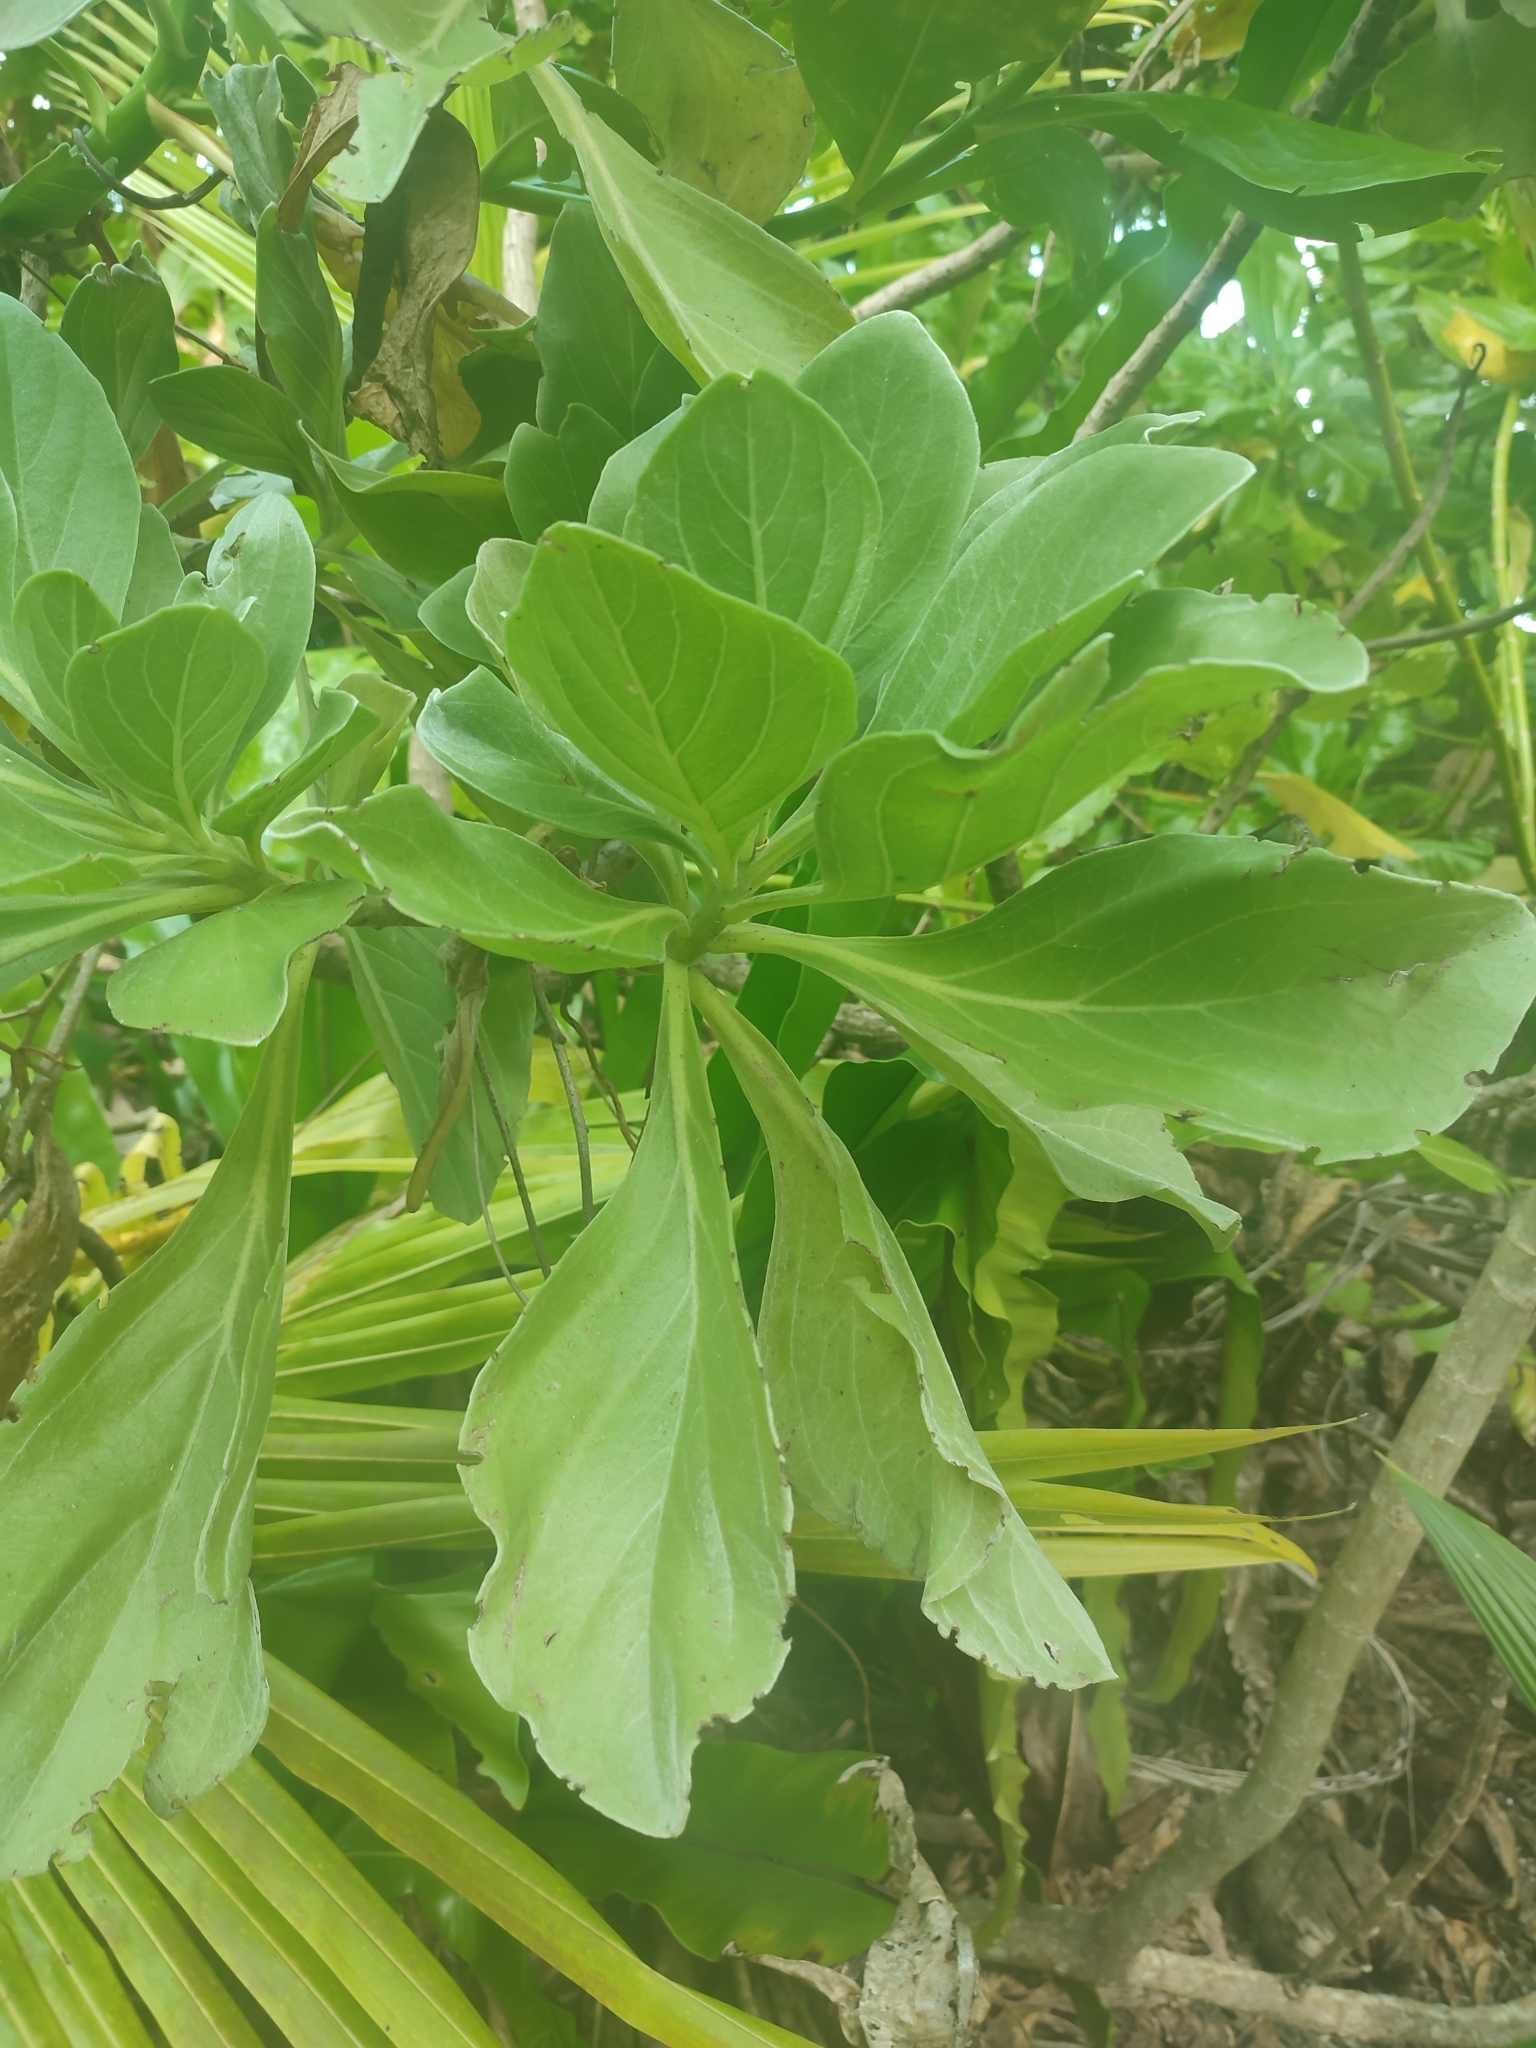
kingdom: Plantae
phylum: Tracheophyta
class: Magnoliopsida
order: Boraginales
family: Heliotropiaceae
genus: Heliotropium
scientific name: Heliotropium velutinum
